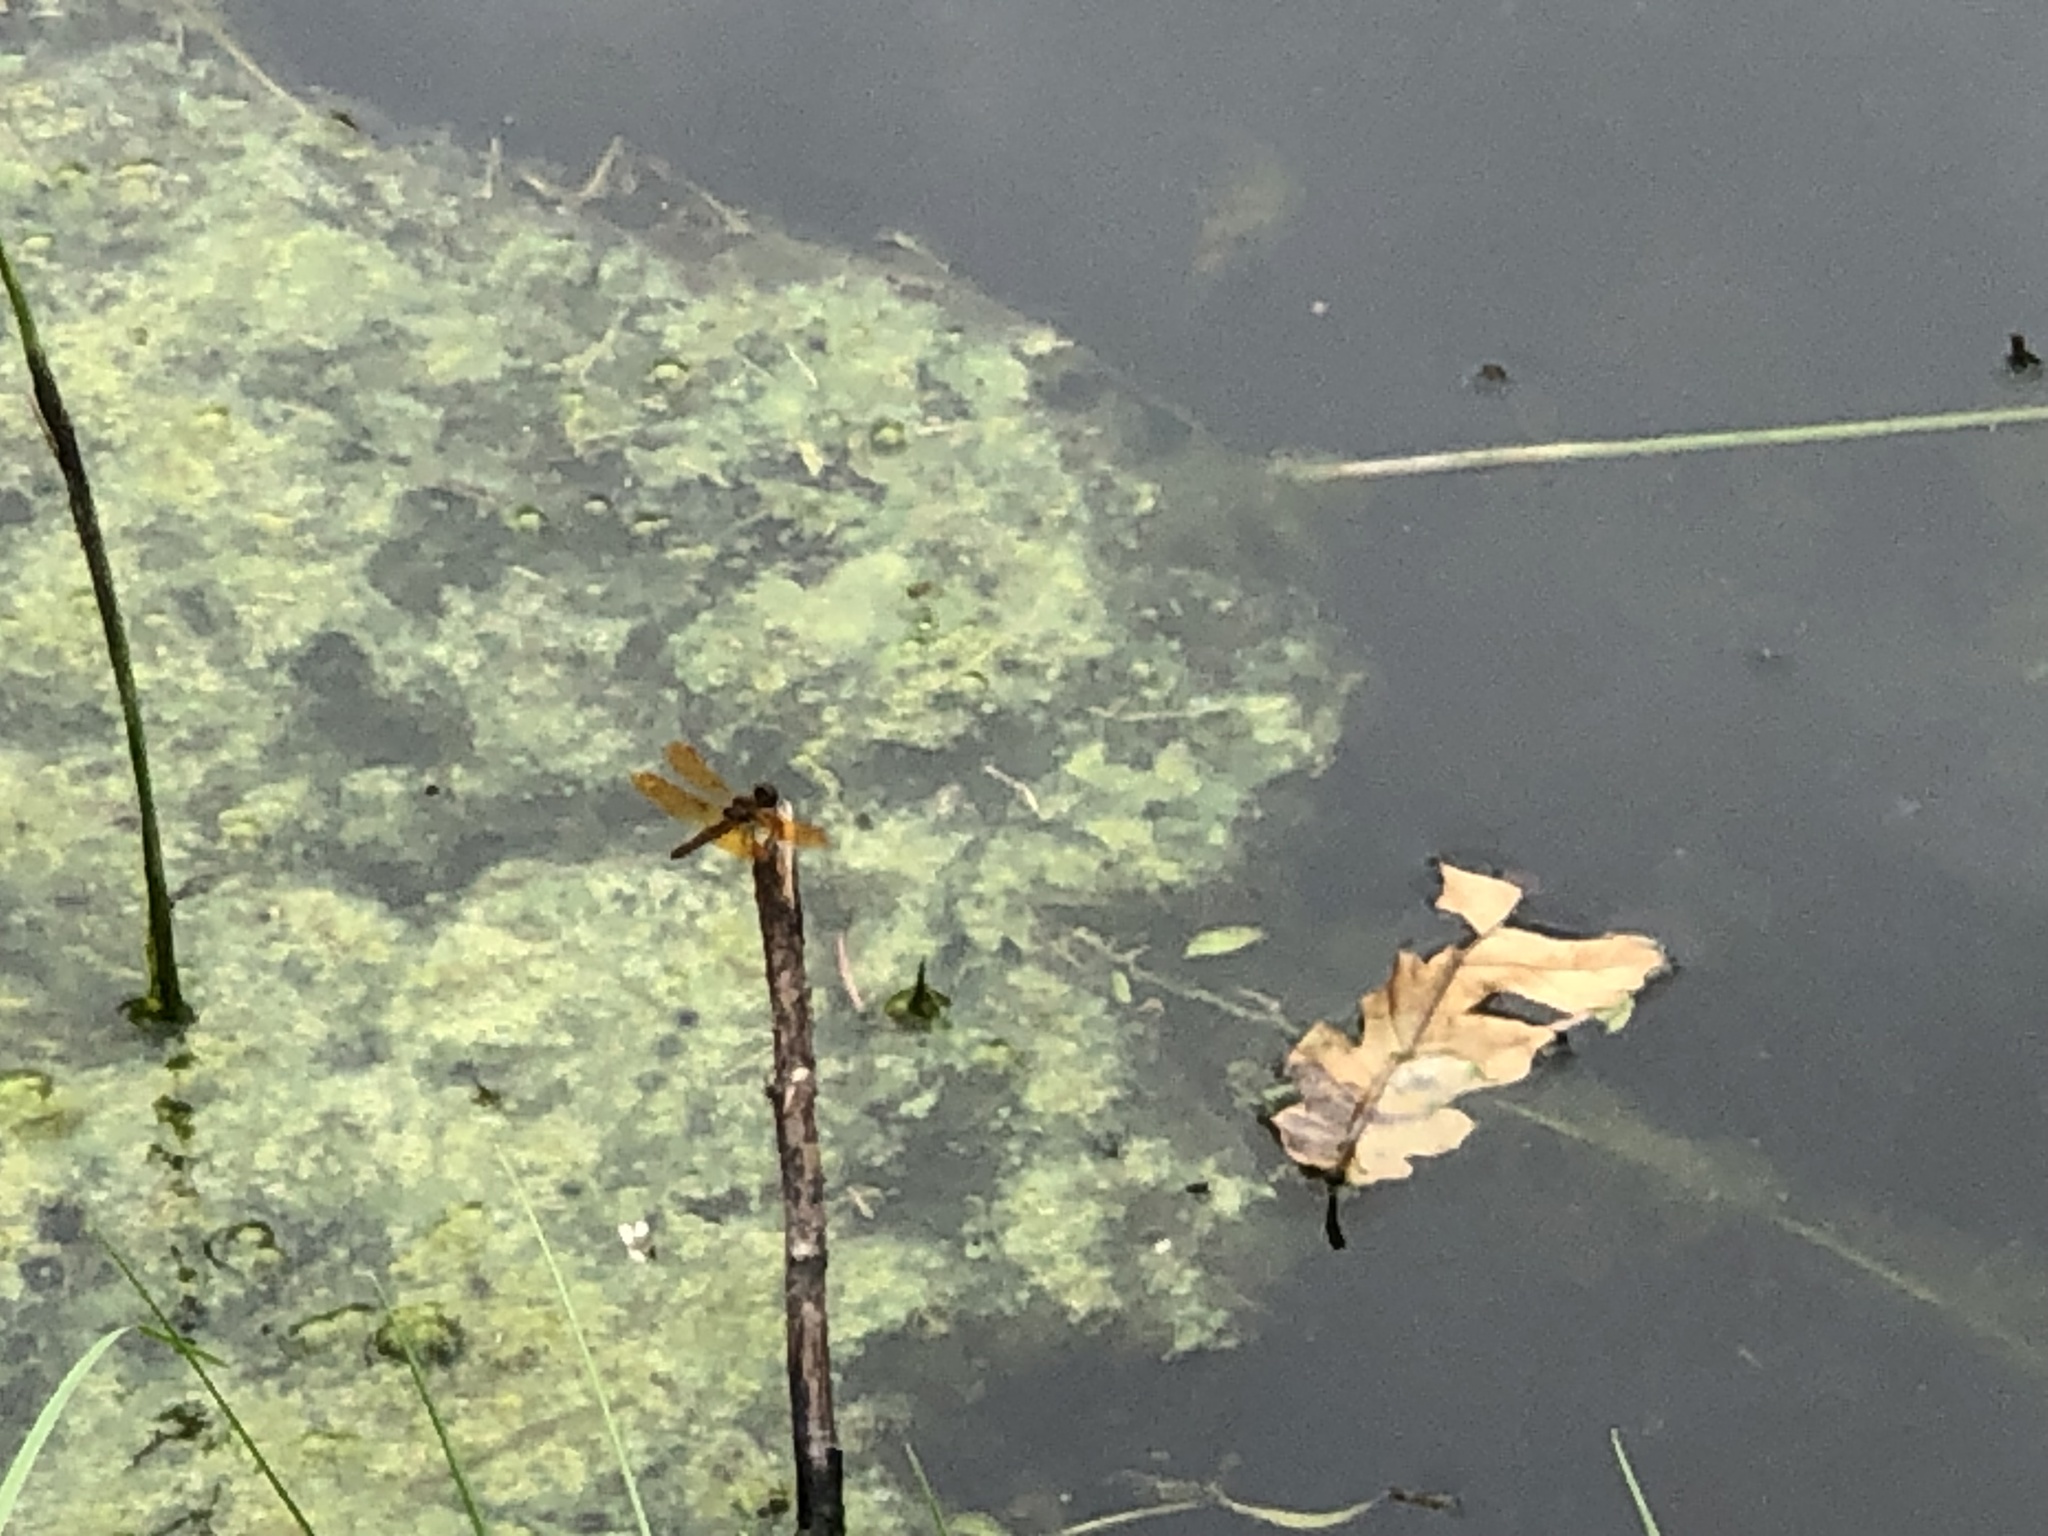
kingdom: Animalia
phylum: Arthropoda
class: Insecta
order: Odonata
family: Libellulidae
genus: Perithemis
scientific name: Perithemis tenera
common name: Eastern amberwing
